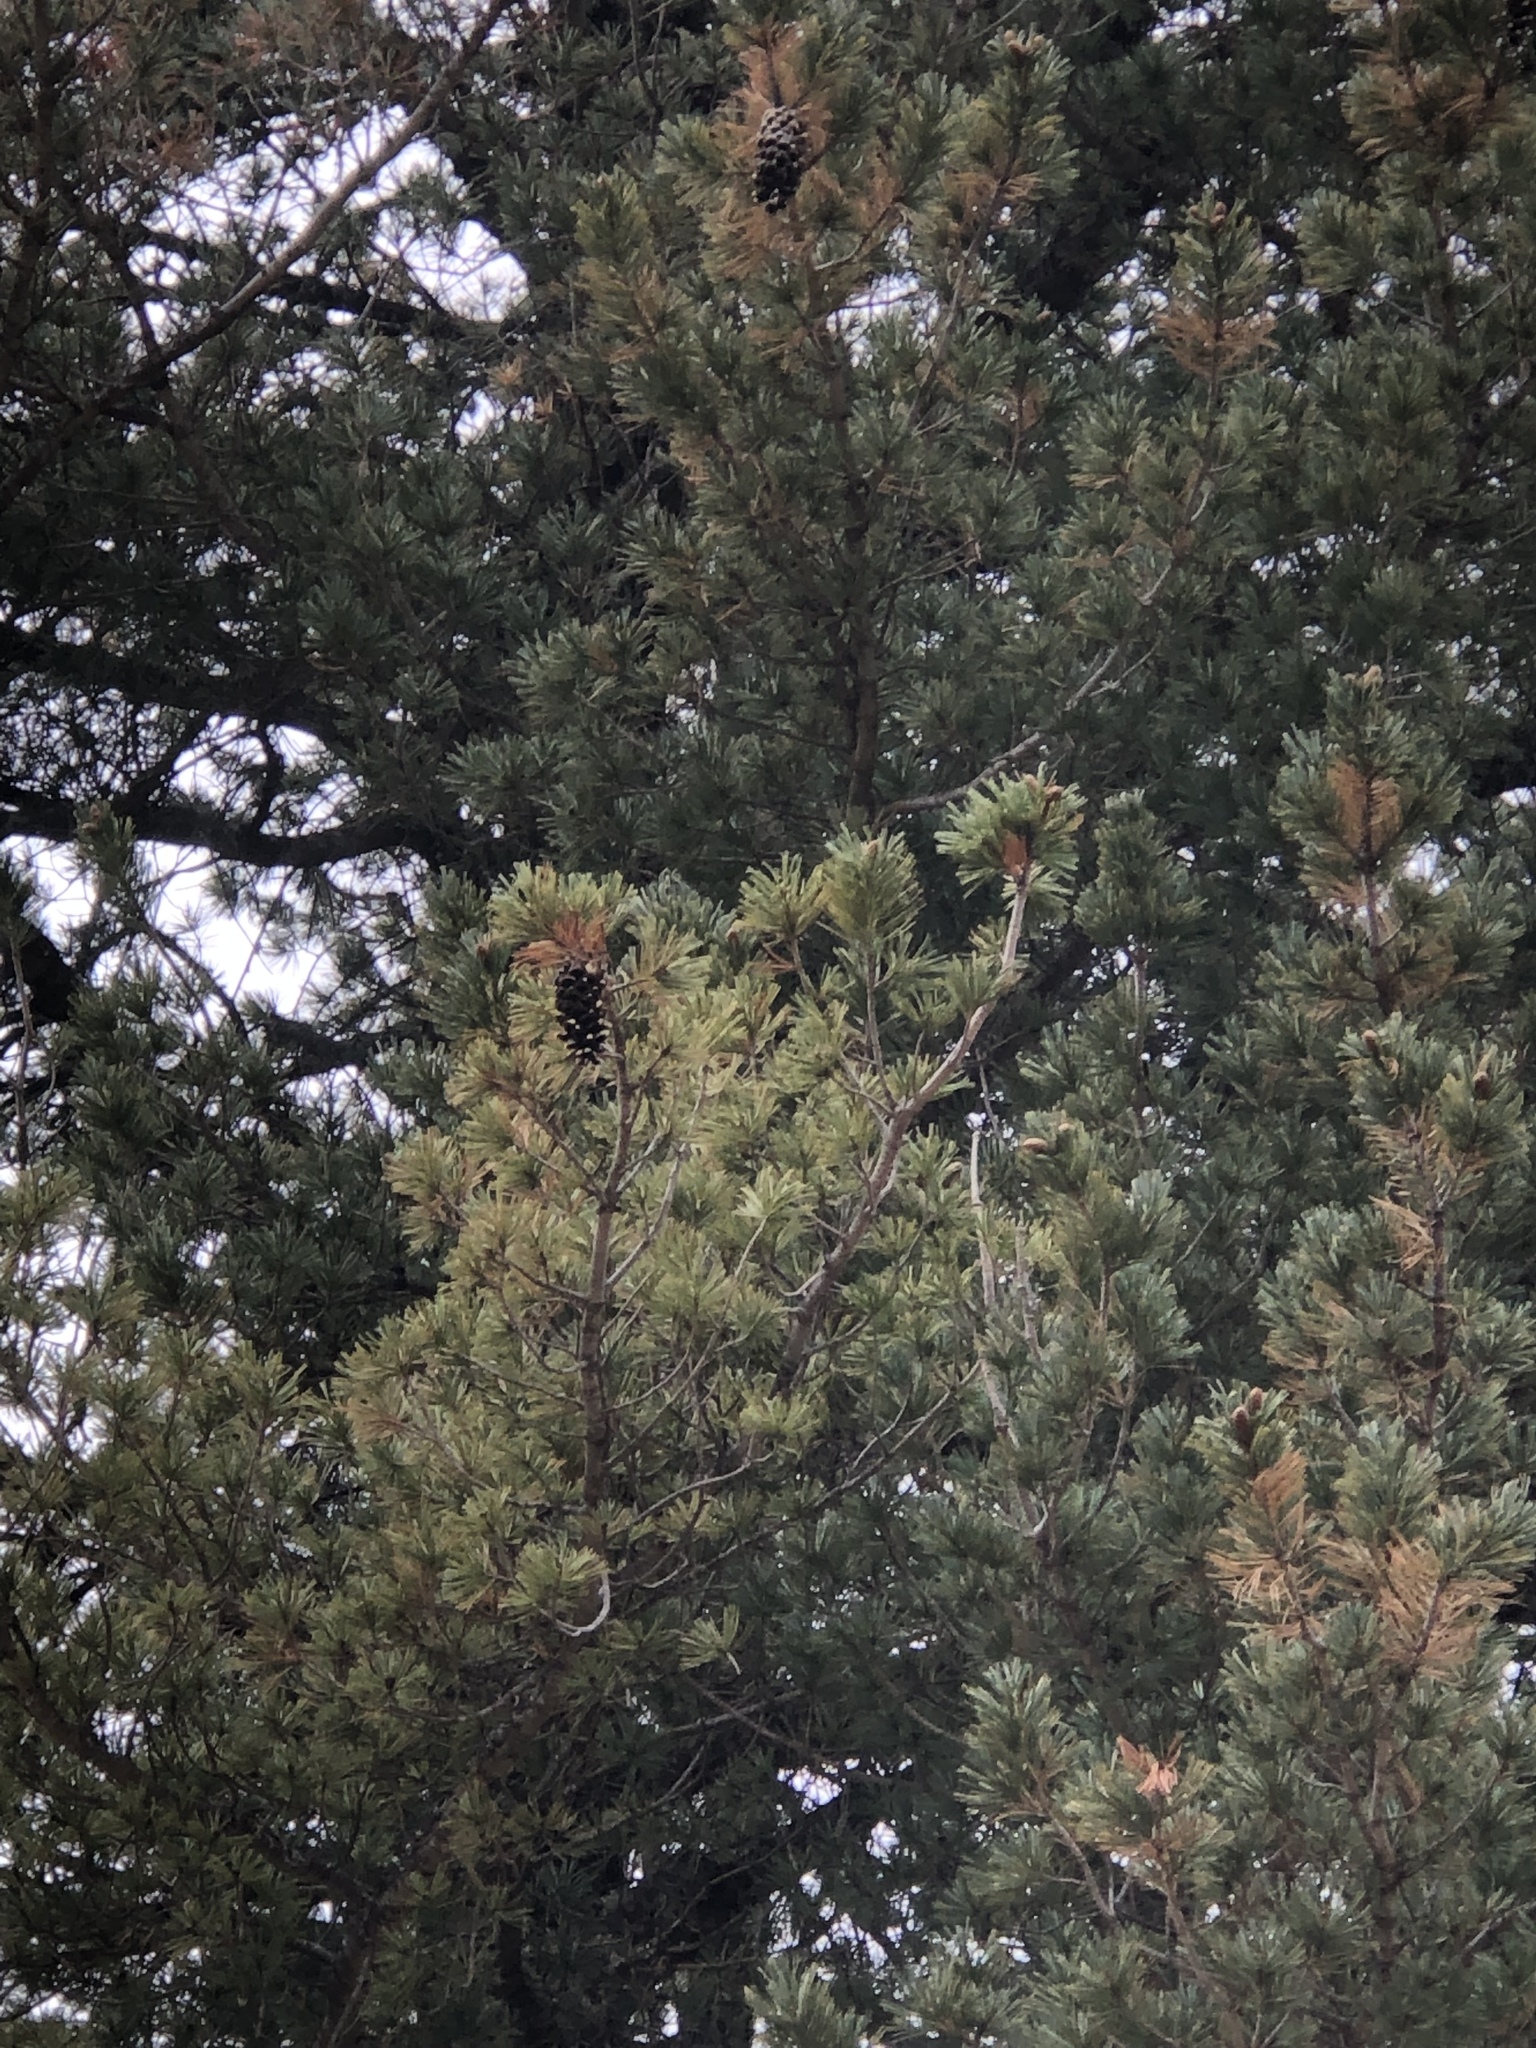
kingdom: Plantae
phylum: Tracheophyta
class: Pinopsida
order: Pinales
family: Pinaceae
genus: Pinus
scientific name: Pinus strobiformis
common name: Southwestern white pine
